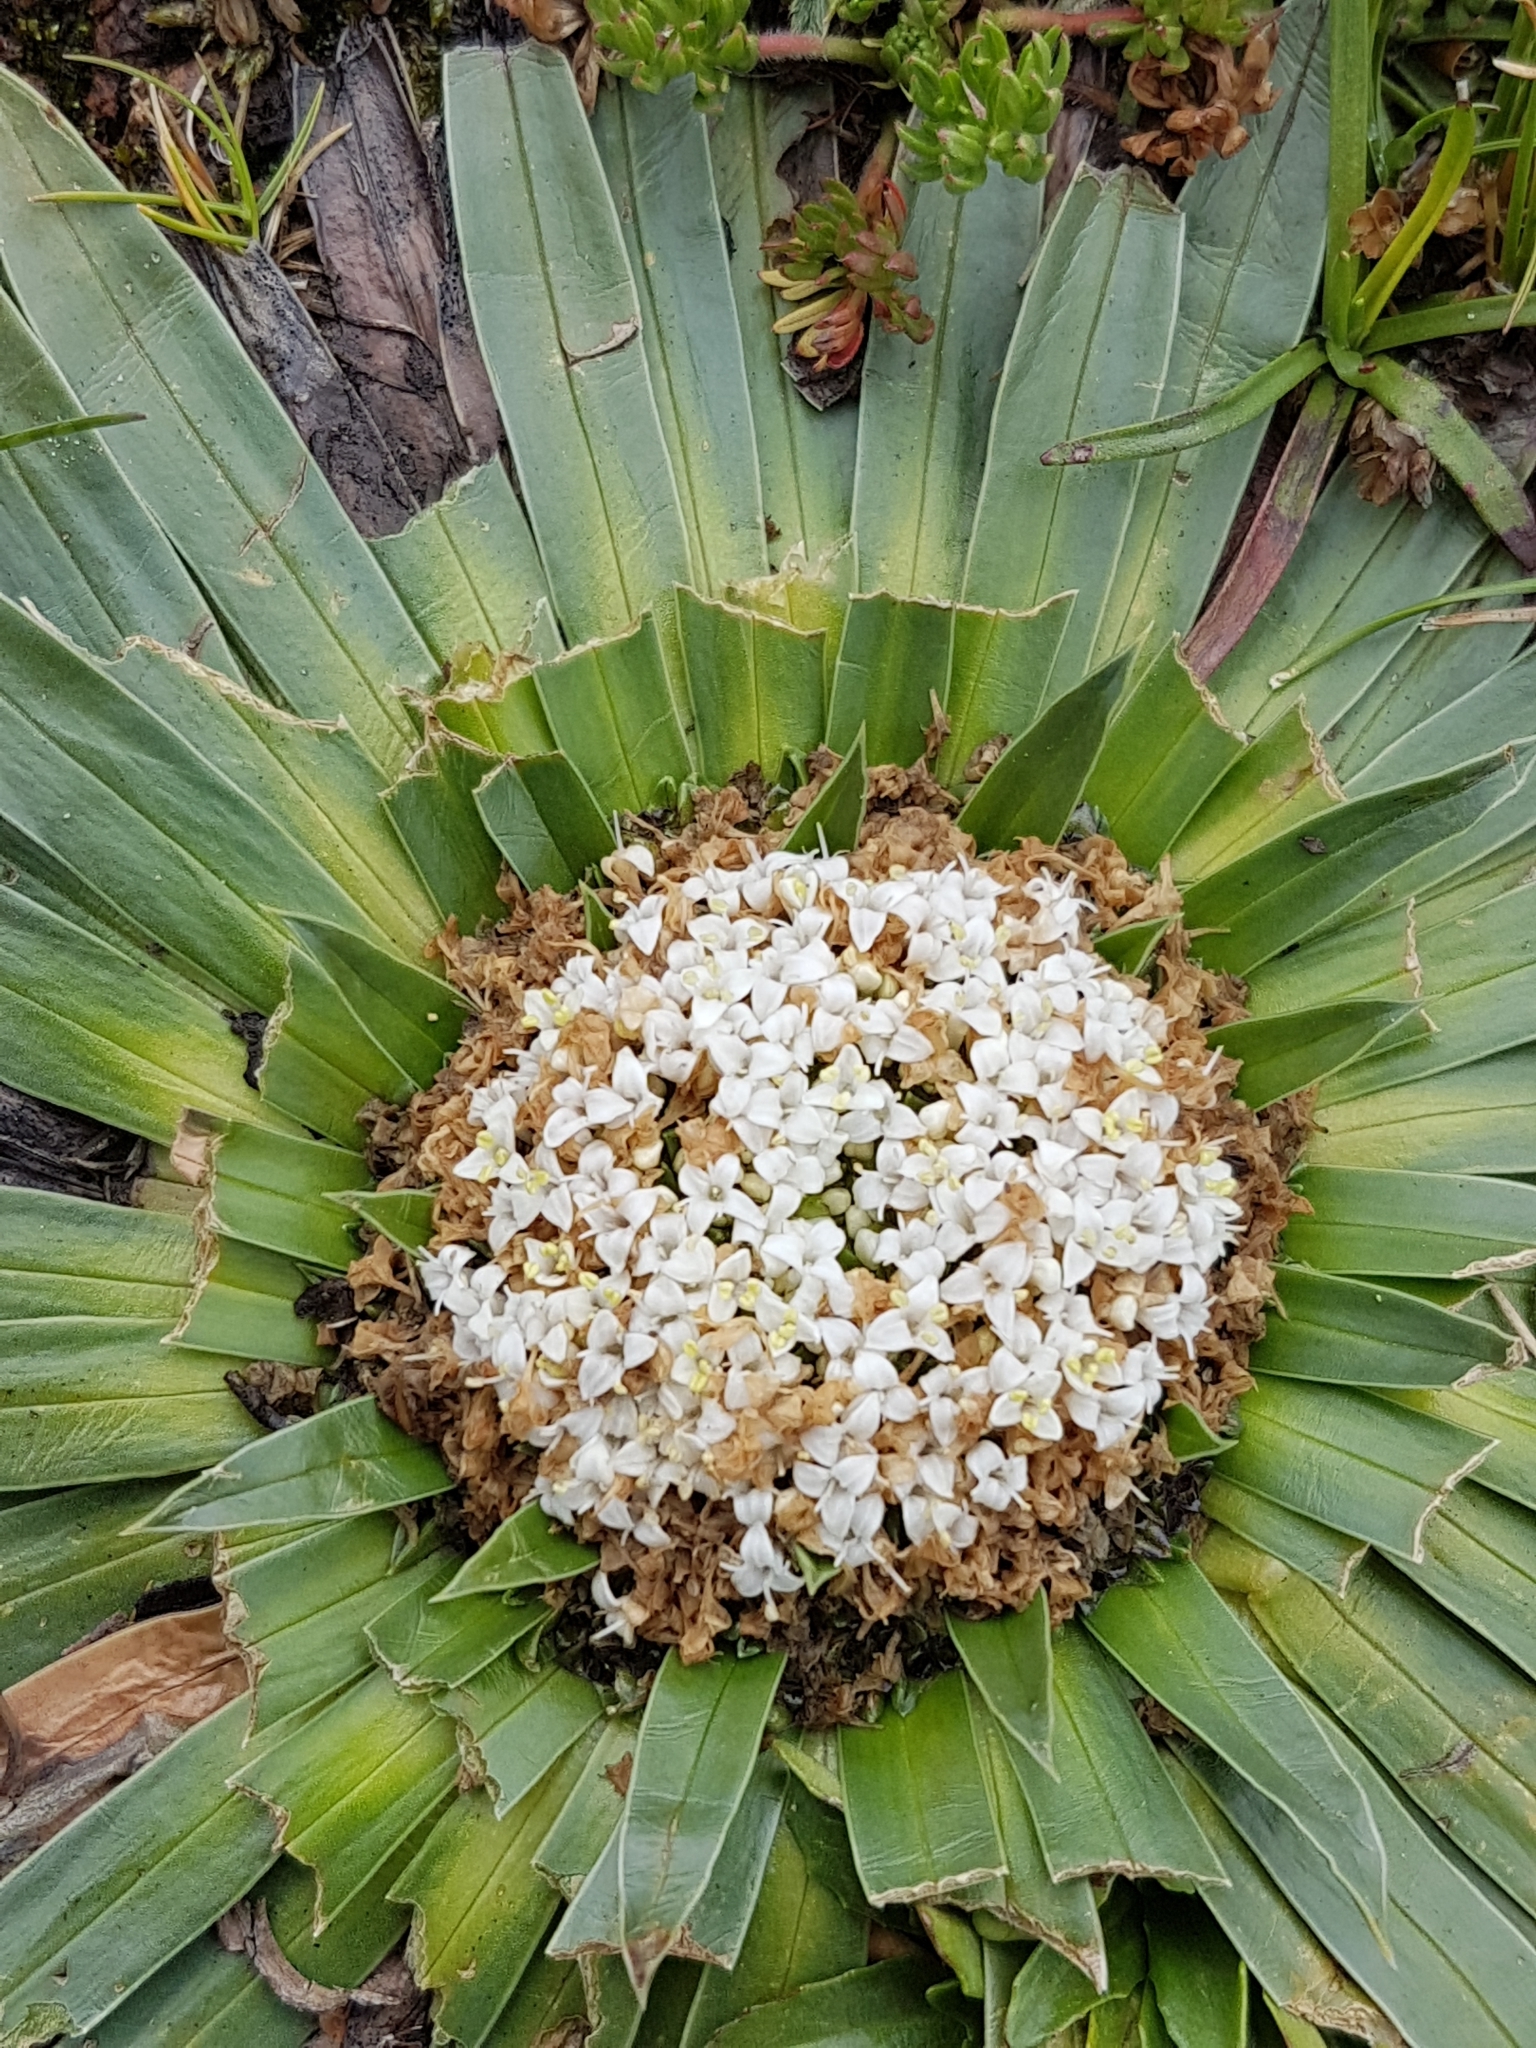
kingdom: Plantae
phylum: Tracheophyta
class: Magnoliopsida
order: Dipsacales
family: Caprifoliaceae
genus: Valeriana
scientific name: Valeriana rigida
